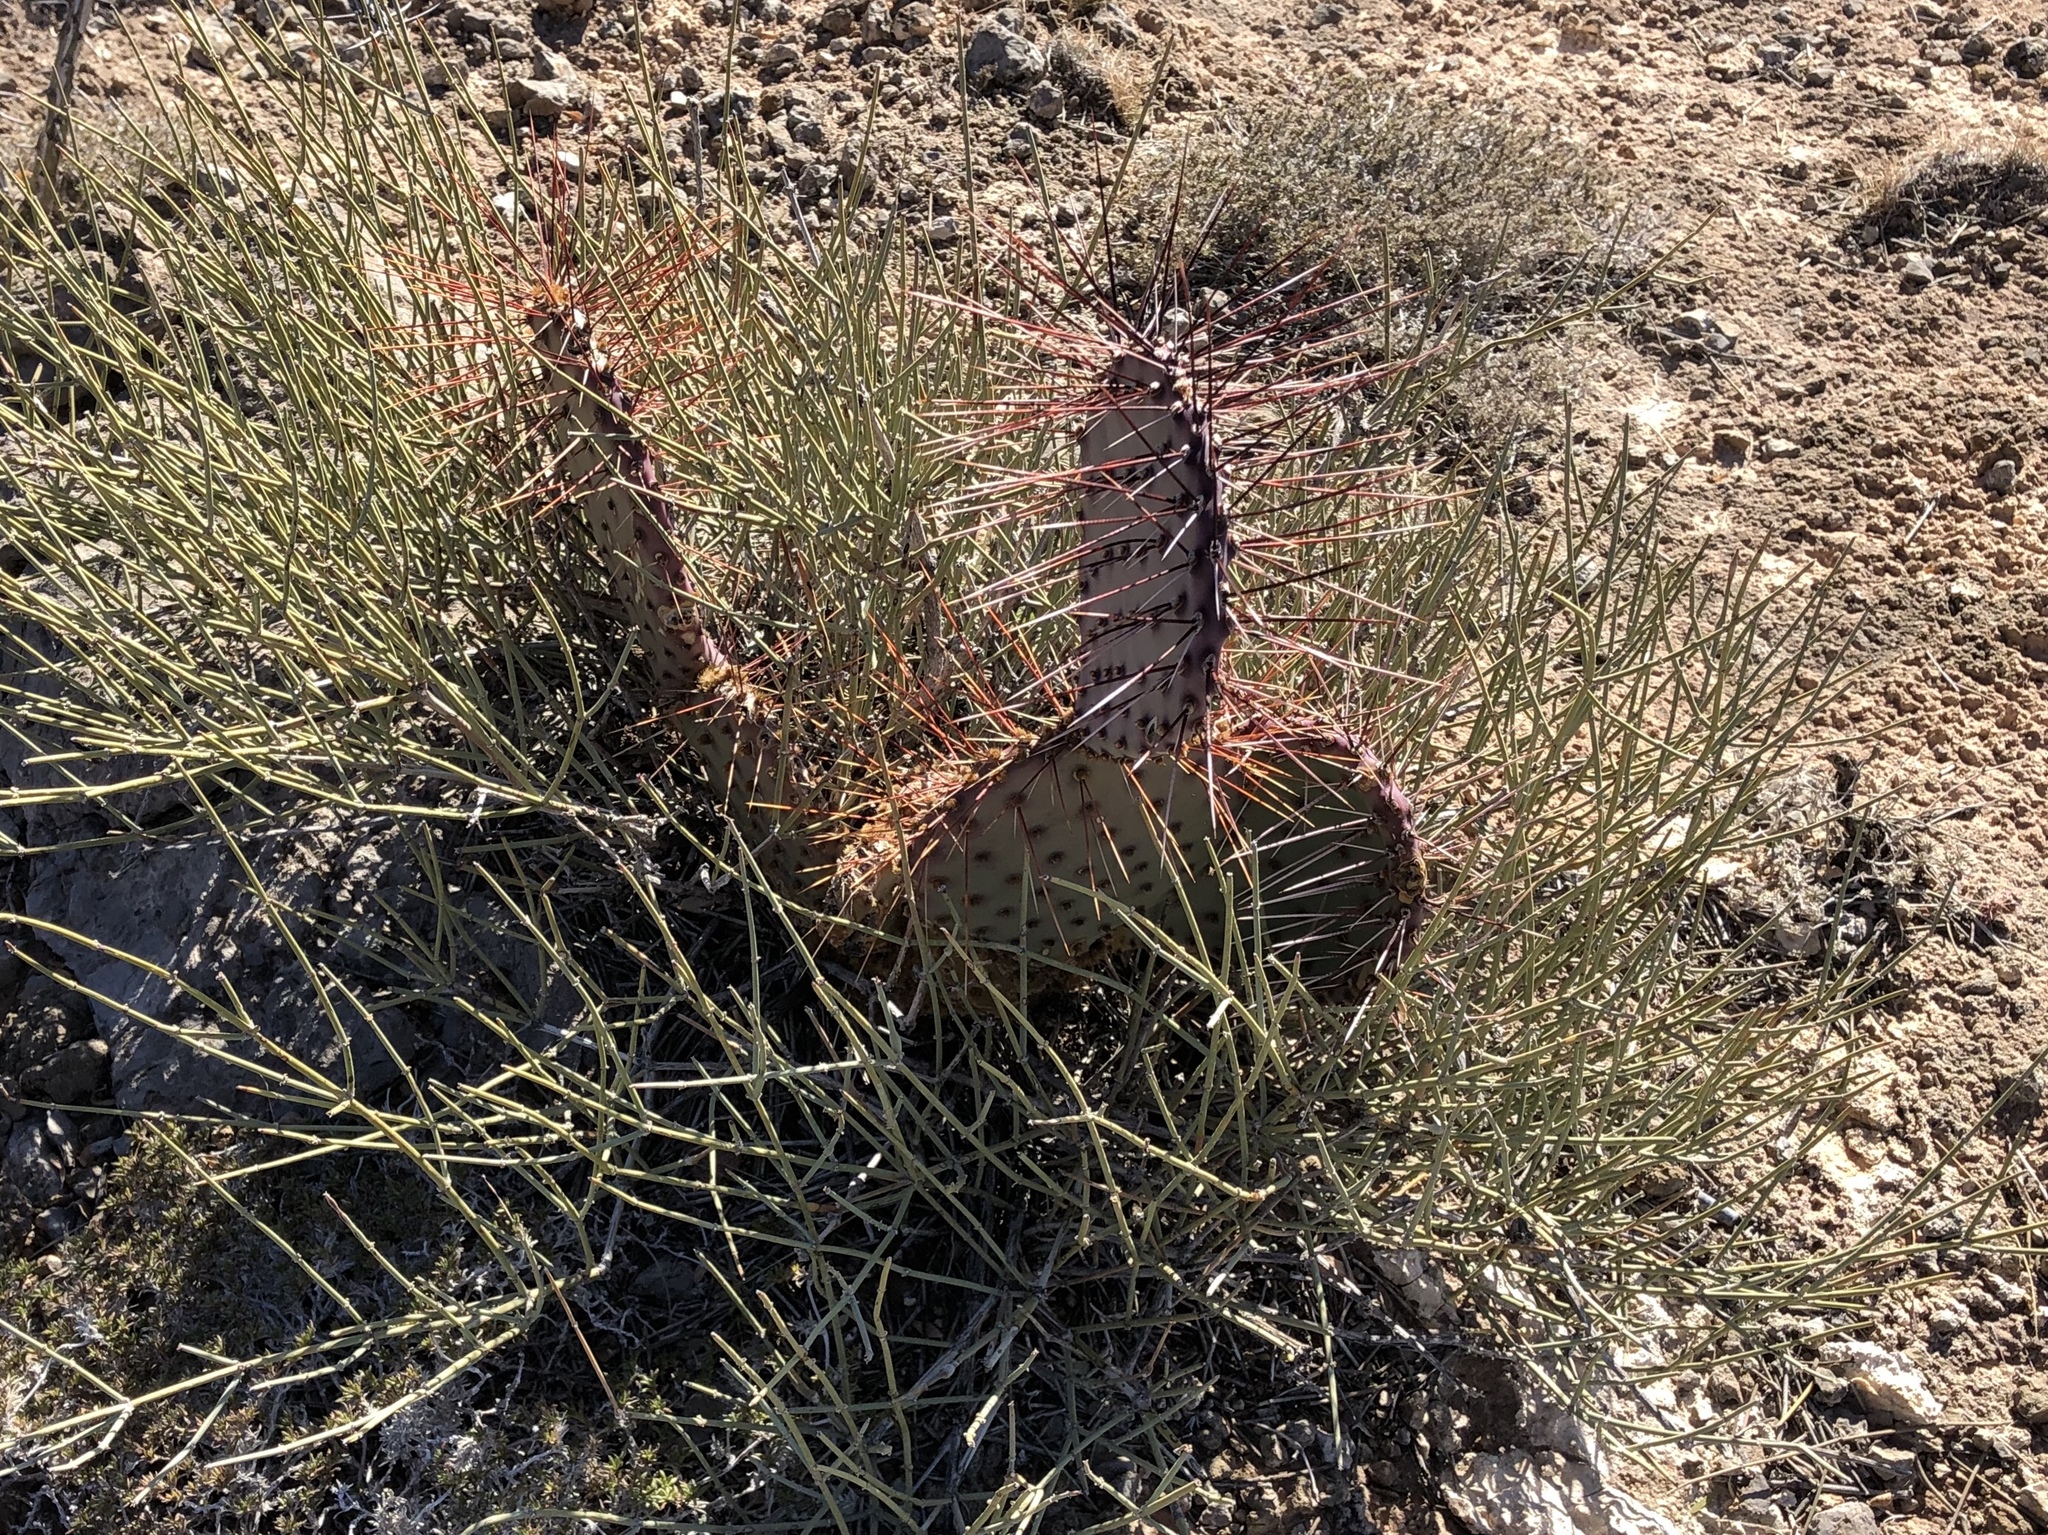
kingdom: Plantae
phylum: Tracheophyta
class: Magnoliopsida
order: Caryophyllales
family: Cactaceae
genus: Opuntia
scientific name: Opuntia macrocentra
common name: Purple prickly-pear
